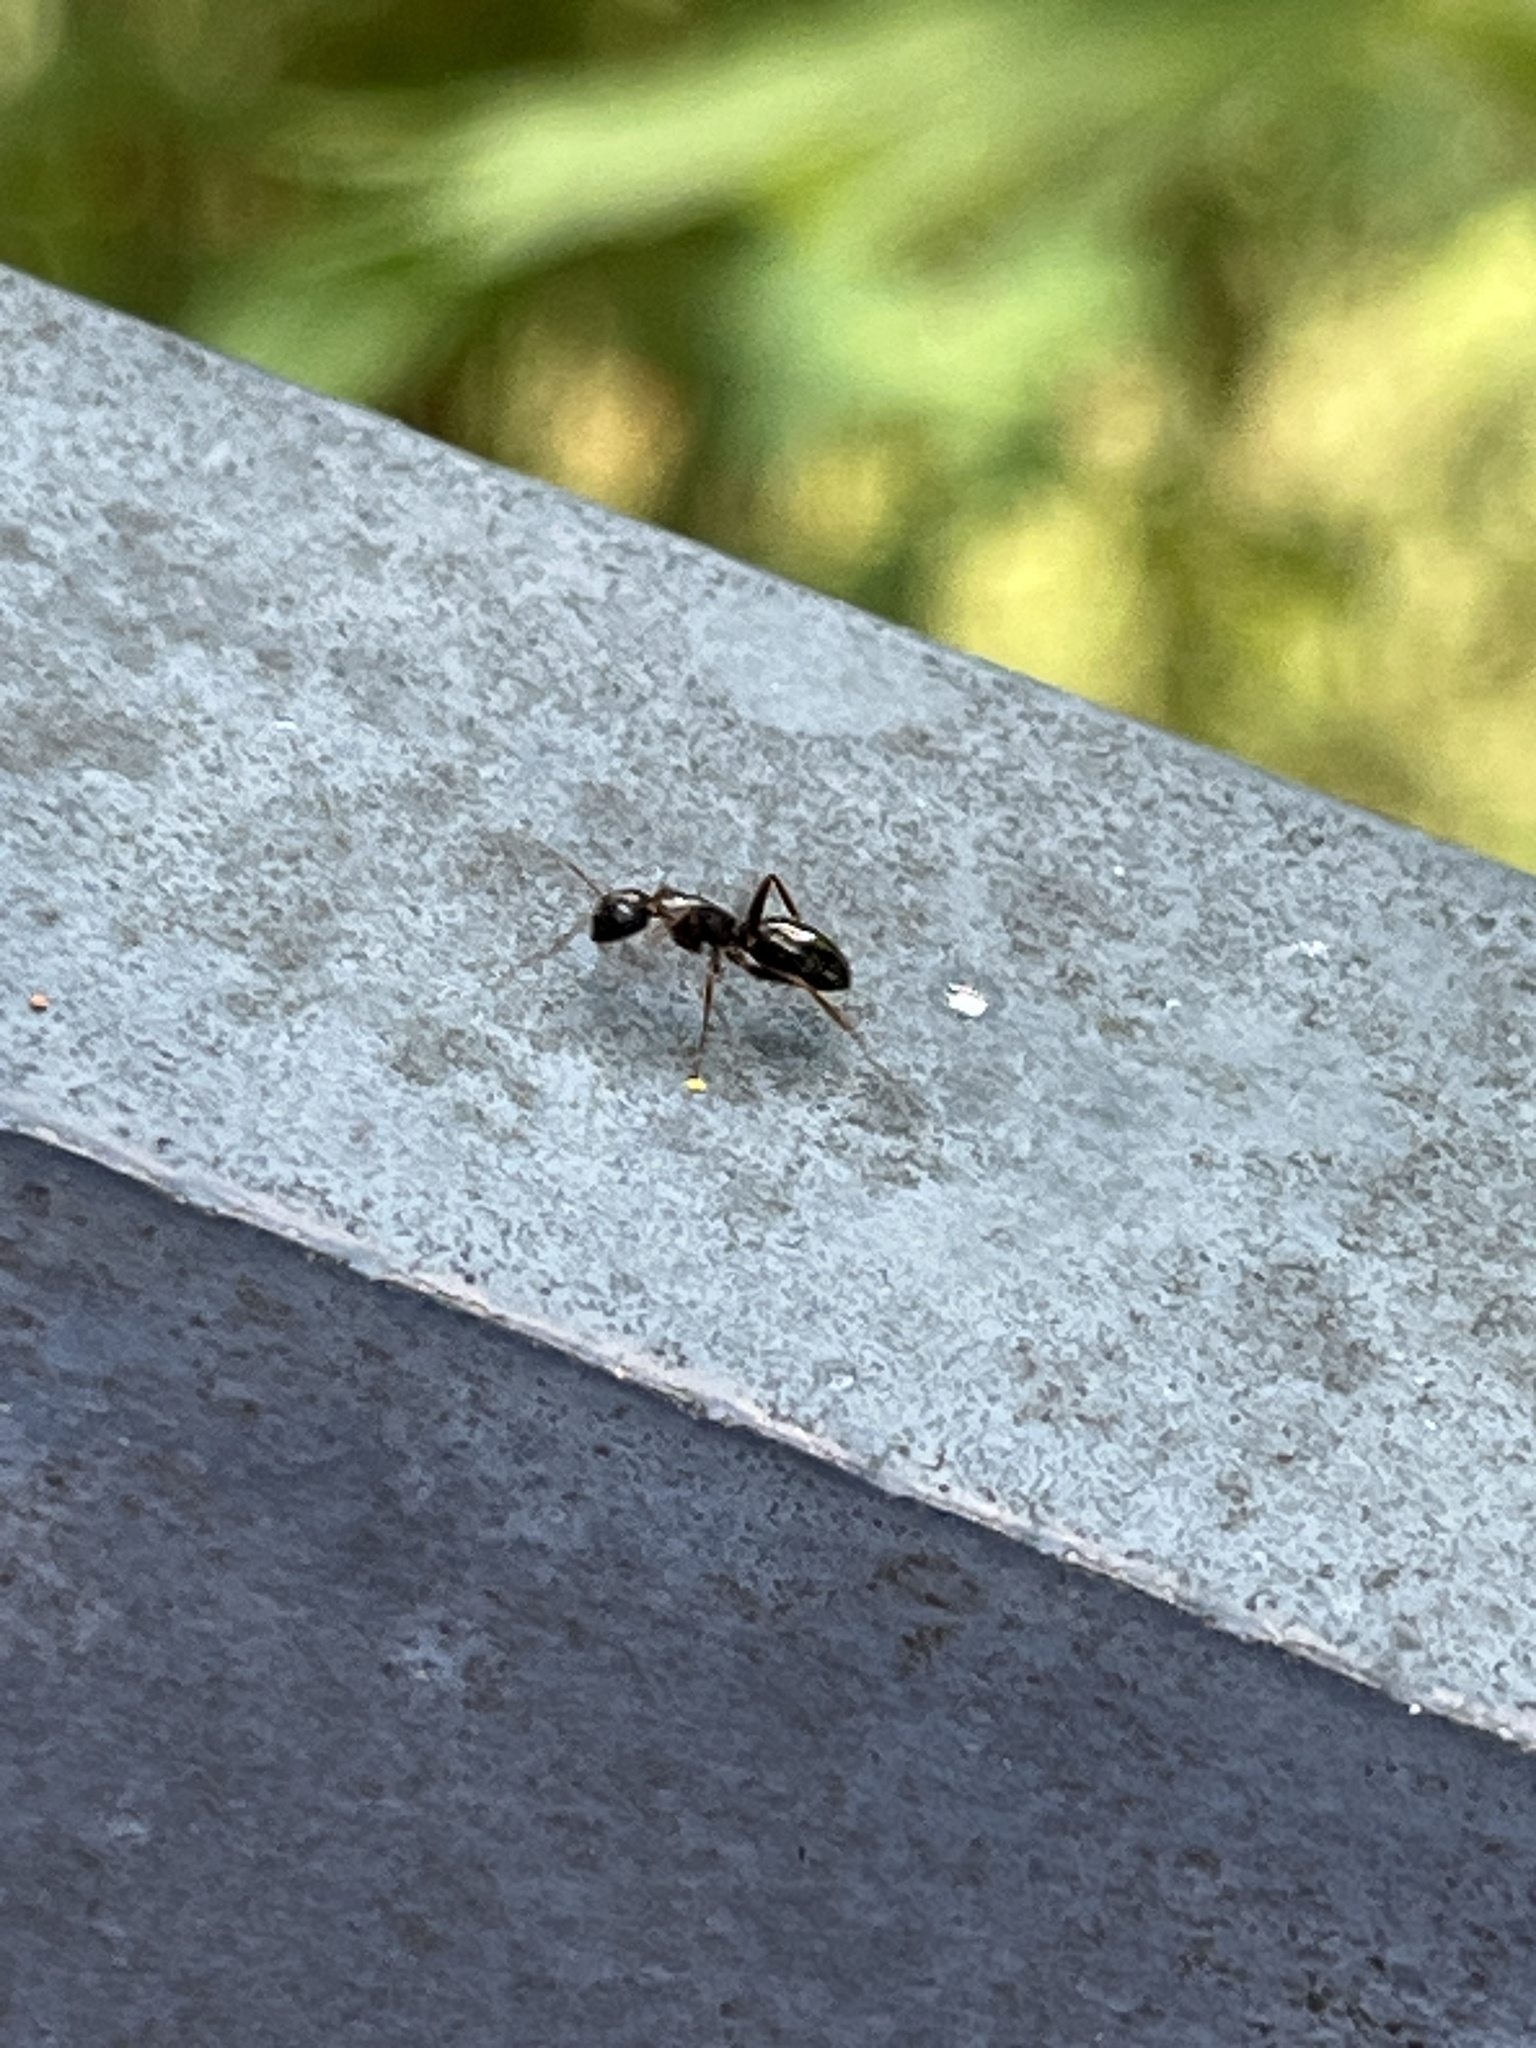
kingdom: Animalia
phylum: Arthropoda
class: Insecta
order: Hymenoptera
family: Formicidae
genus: Camponotus
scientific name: Camponotus fallax
